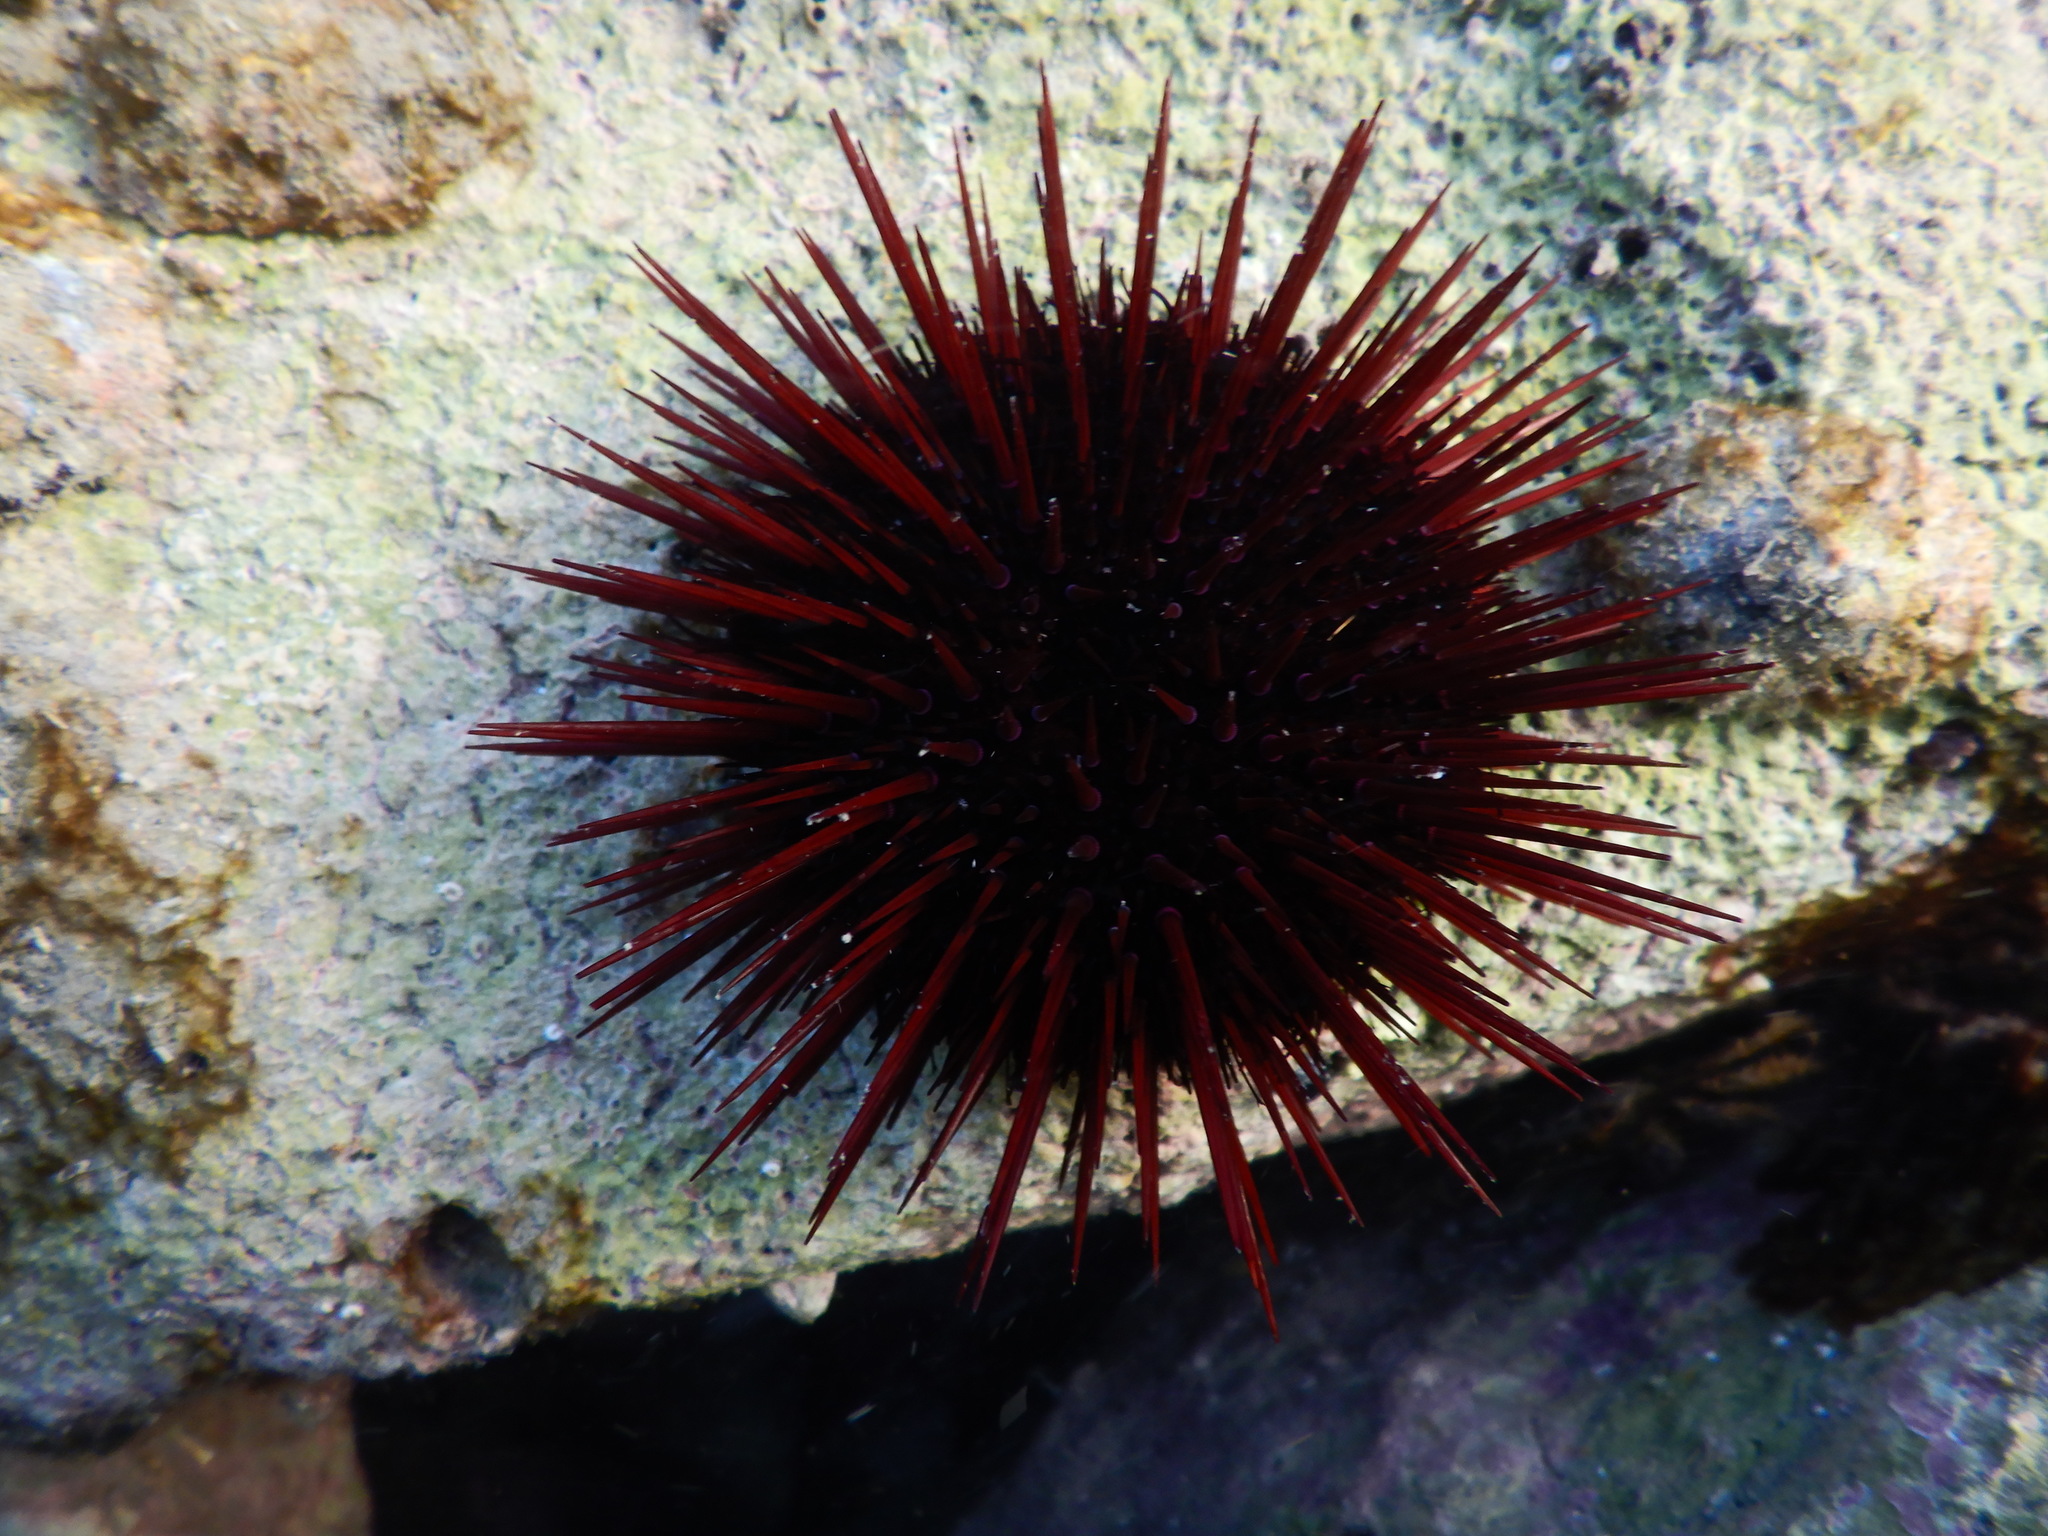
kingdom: Animalia
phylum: Echinodermata
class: Echinoidea
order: Camarodonta
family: Parechinidae
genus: Paracentrotus
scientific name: Paracentrotus lividus
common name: Purple sea urchin
